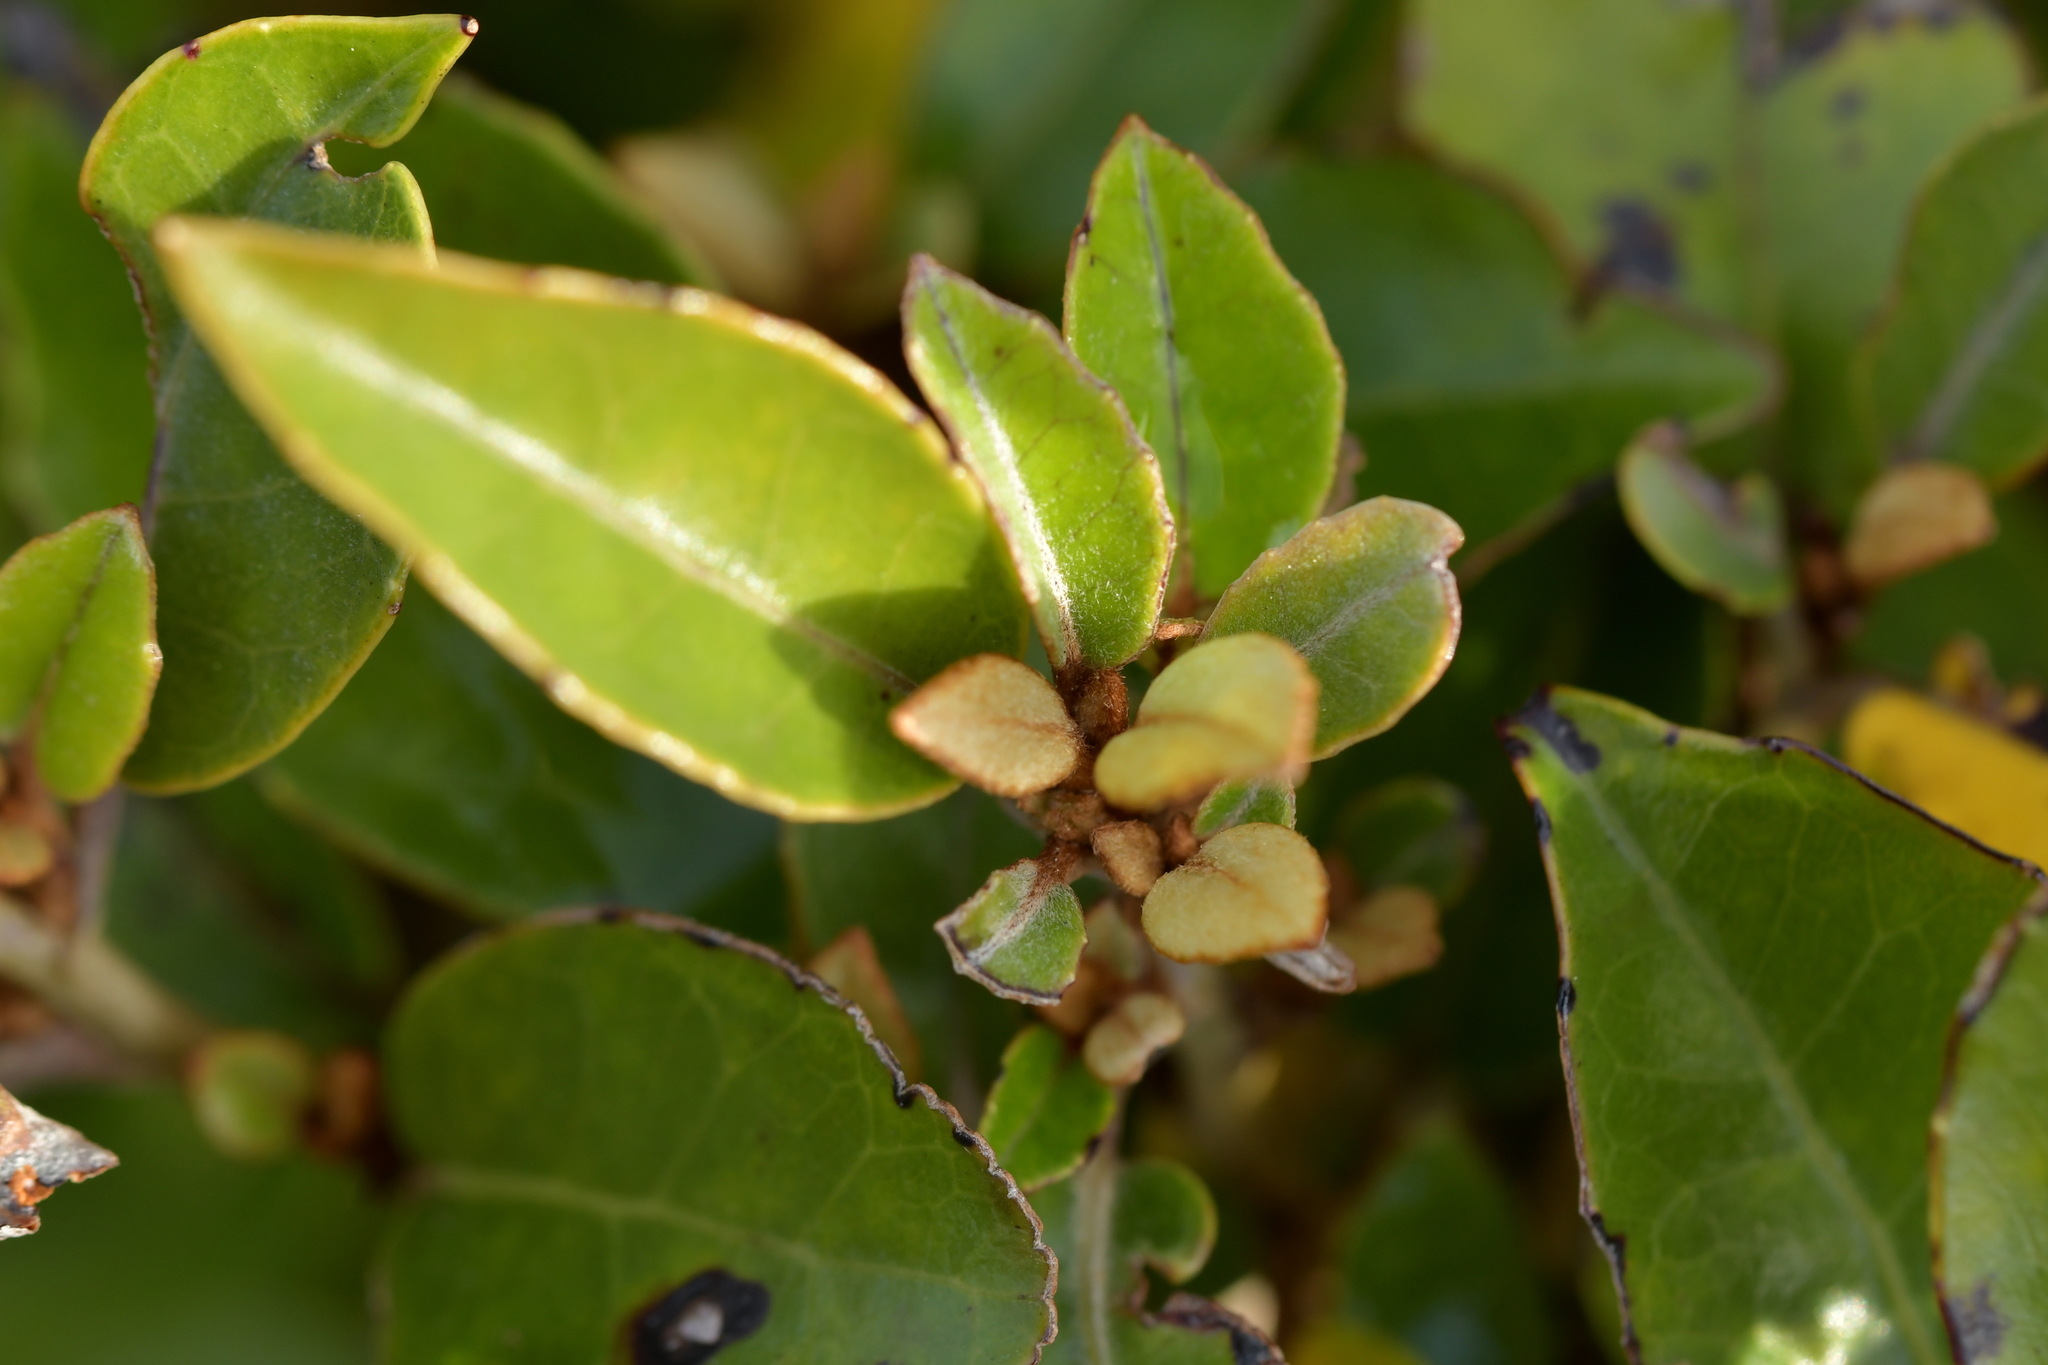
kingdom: Plantae
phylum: Tracheophyta
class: Magnoliopsida
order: Asterales
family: Asteraceae
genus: Olearia
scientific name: Olearia arborescens
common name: Glossy tree daisy
